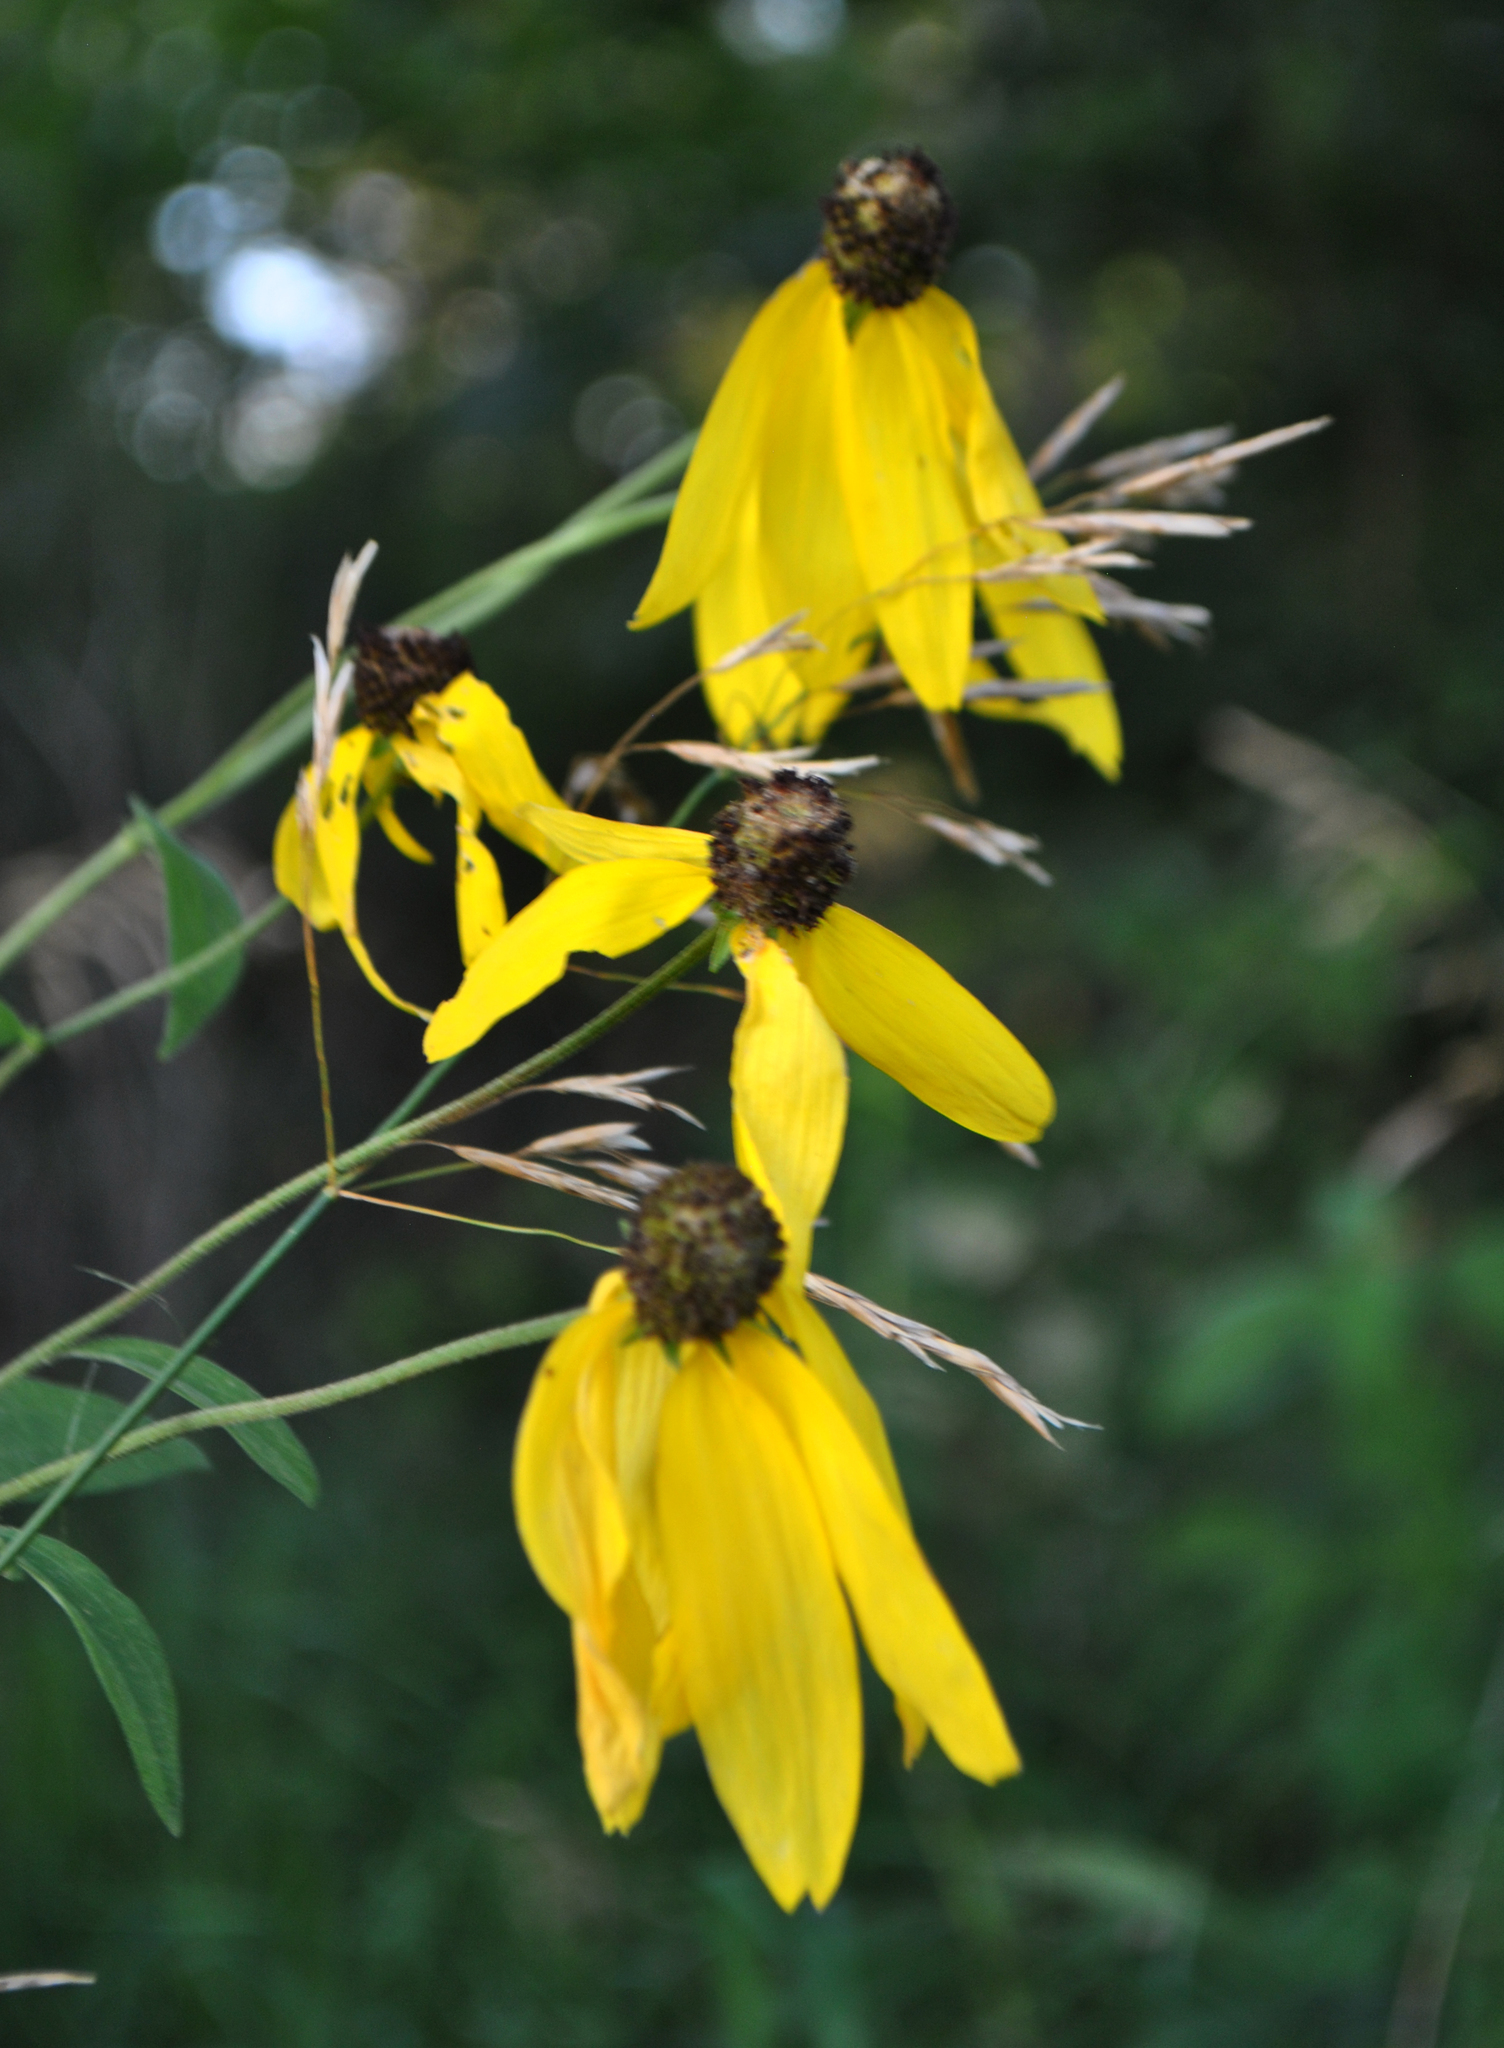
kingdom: Plantae
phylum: Tracheophyta
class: Magnoliopsida
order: Asterales
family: Asteraceae
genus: Ratibida
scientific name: Ratibida pinnata
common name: Drooping prairie-coneflower
